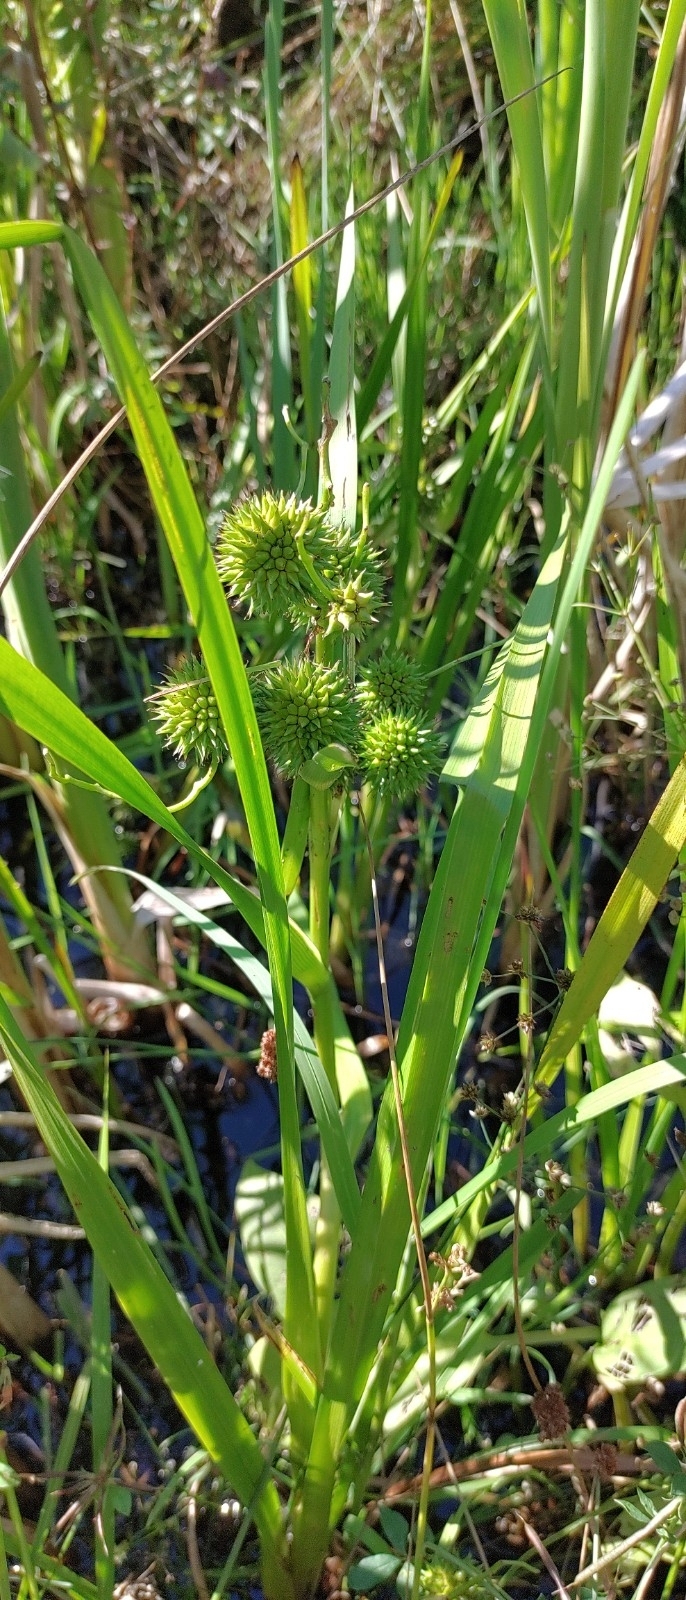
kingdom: Plantae
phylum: Tracheophyta
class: Liliopsida
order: Poales
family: Typhaceae
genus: Sparganium
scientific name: Sparganium erectum
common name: Branched bur-reed
